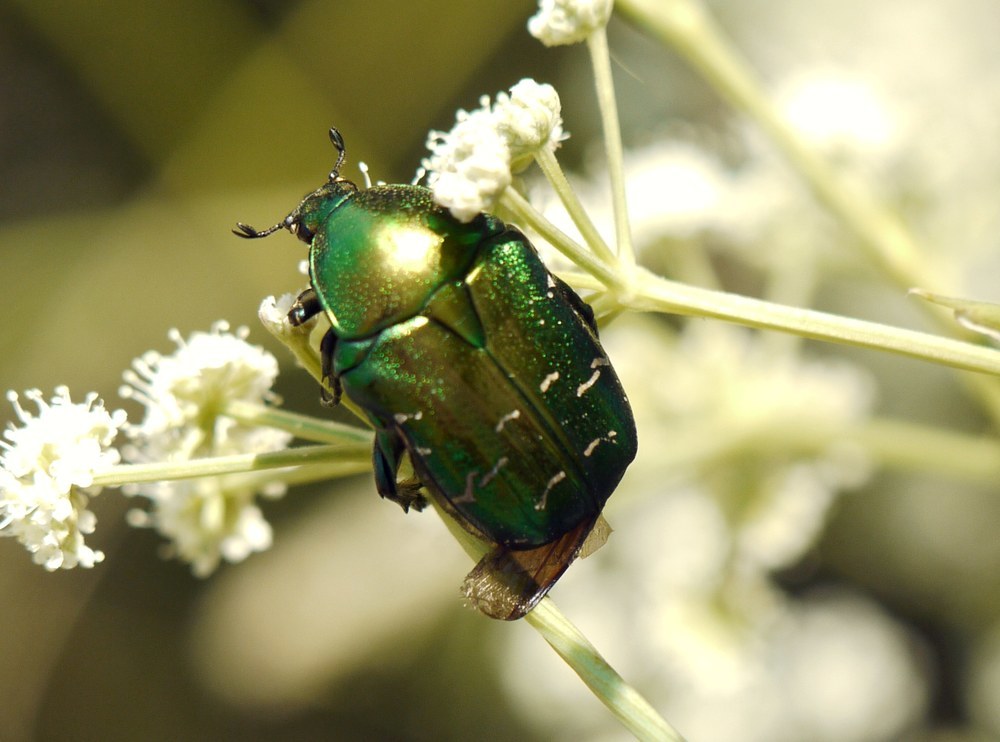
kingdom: Animalia
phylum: Arthropoda
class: Insecta
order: Coleoptera
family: Scarabaeidae
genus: Cetonia
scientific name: Cetonia aurata
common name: Rose chafer
